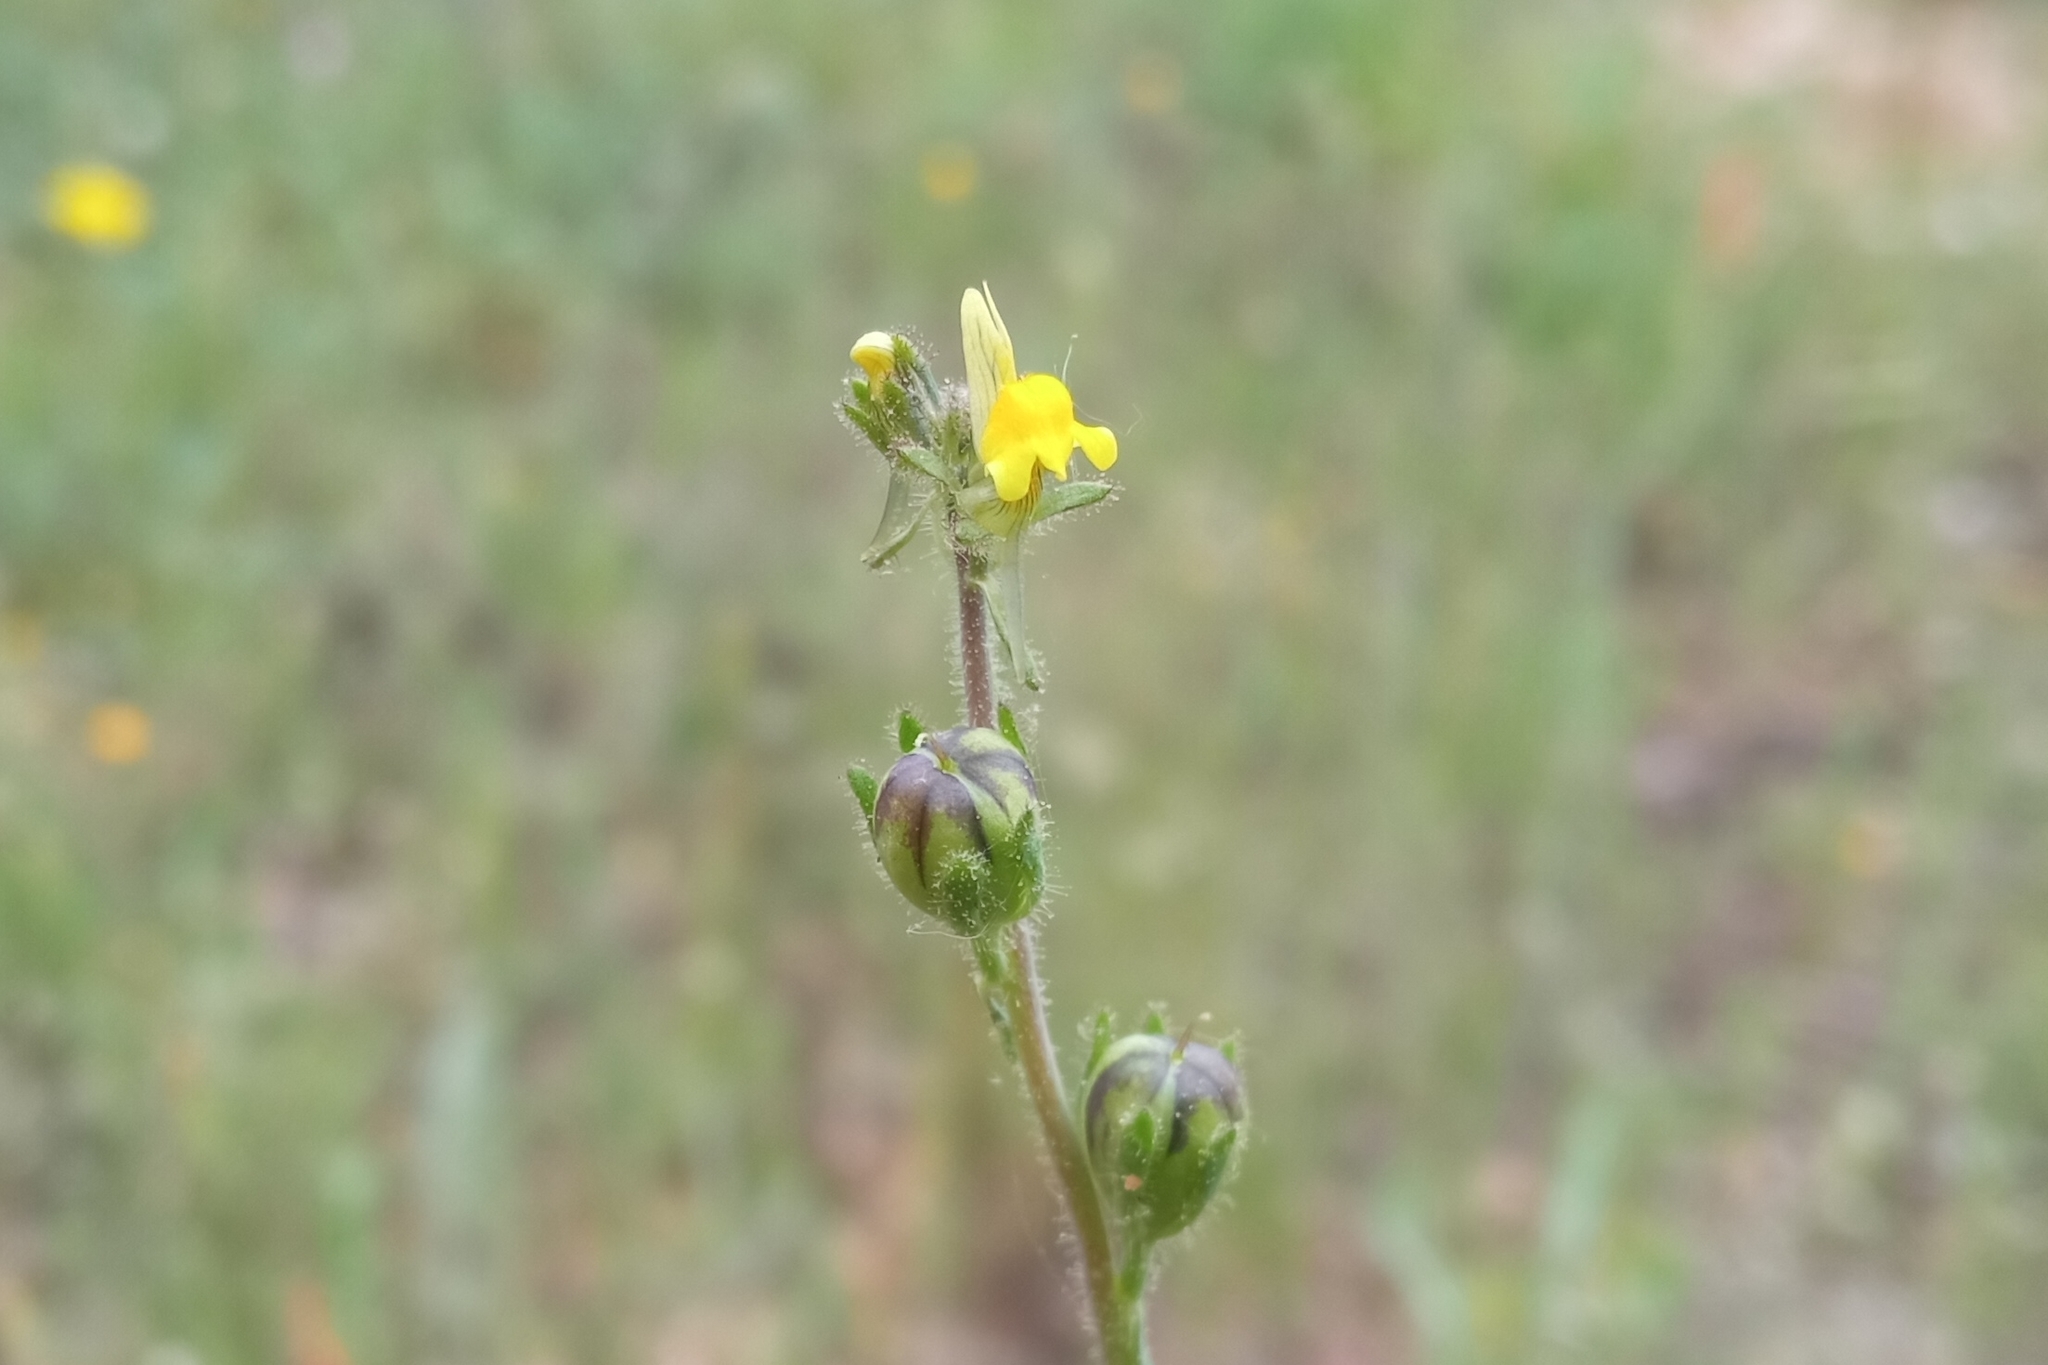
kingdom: Plantae
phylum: Tracheophyta
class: Magnoliopsida
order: Lamiales
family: Plantaginaceae
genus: Linaria
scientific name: Linaria simplex
